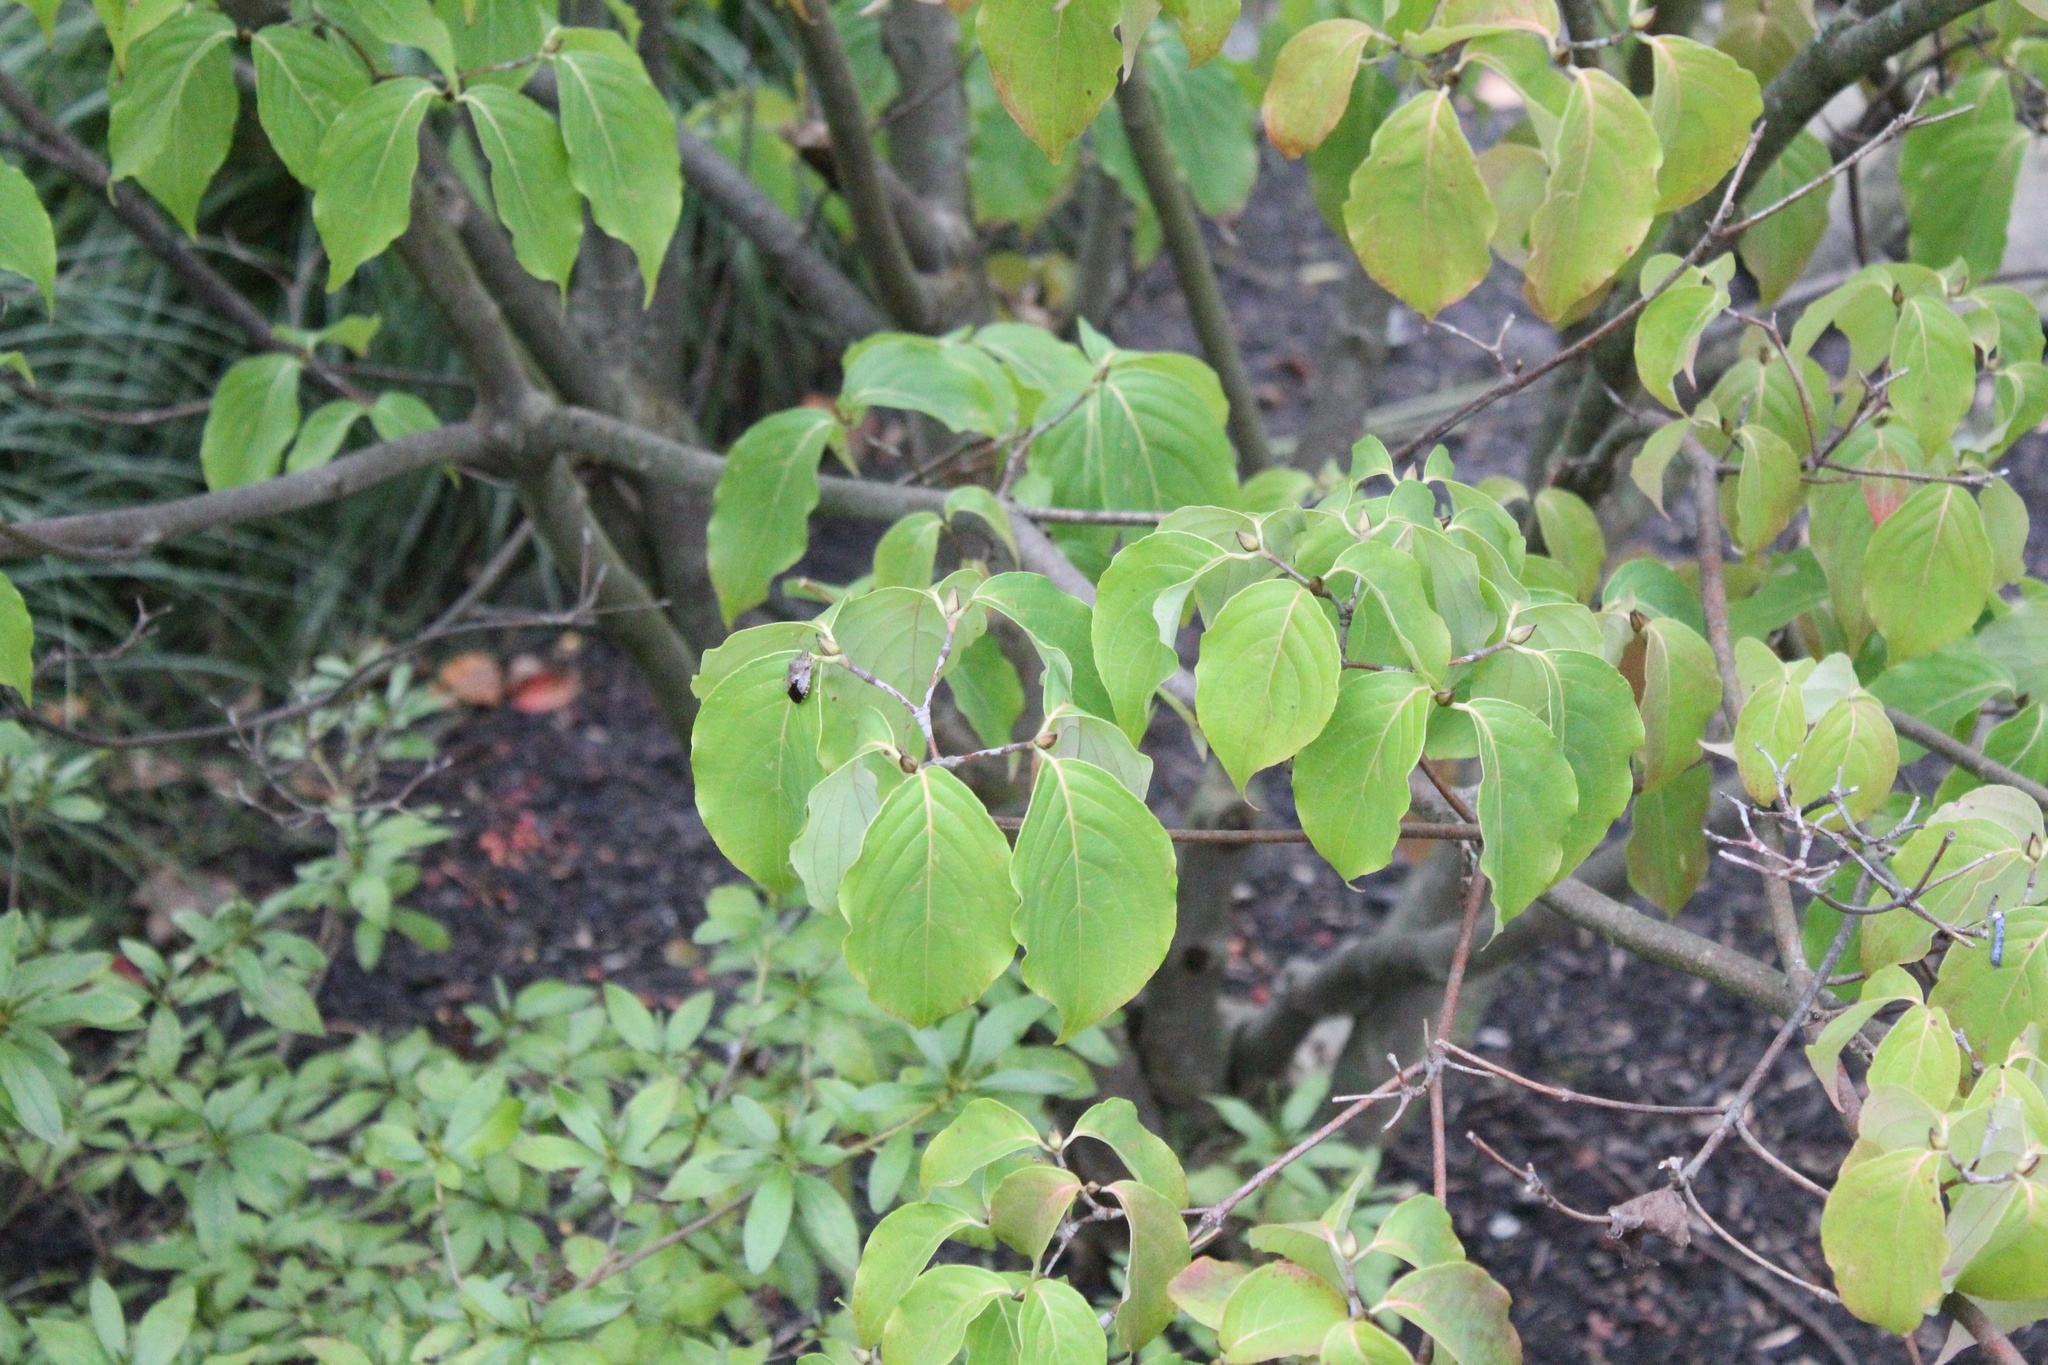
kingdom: Animalia
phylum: Arthropoda
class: Insecta
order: Hemiptera
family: Pentatomidae
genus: Halyomorpha
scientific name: Halyomorpha halys
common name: Brown marmorated stink bug
